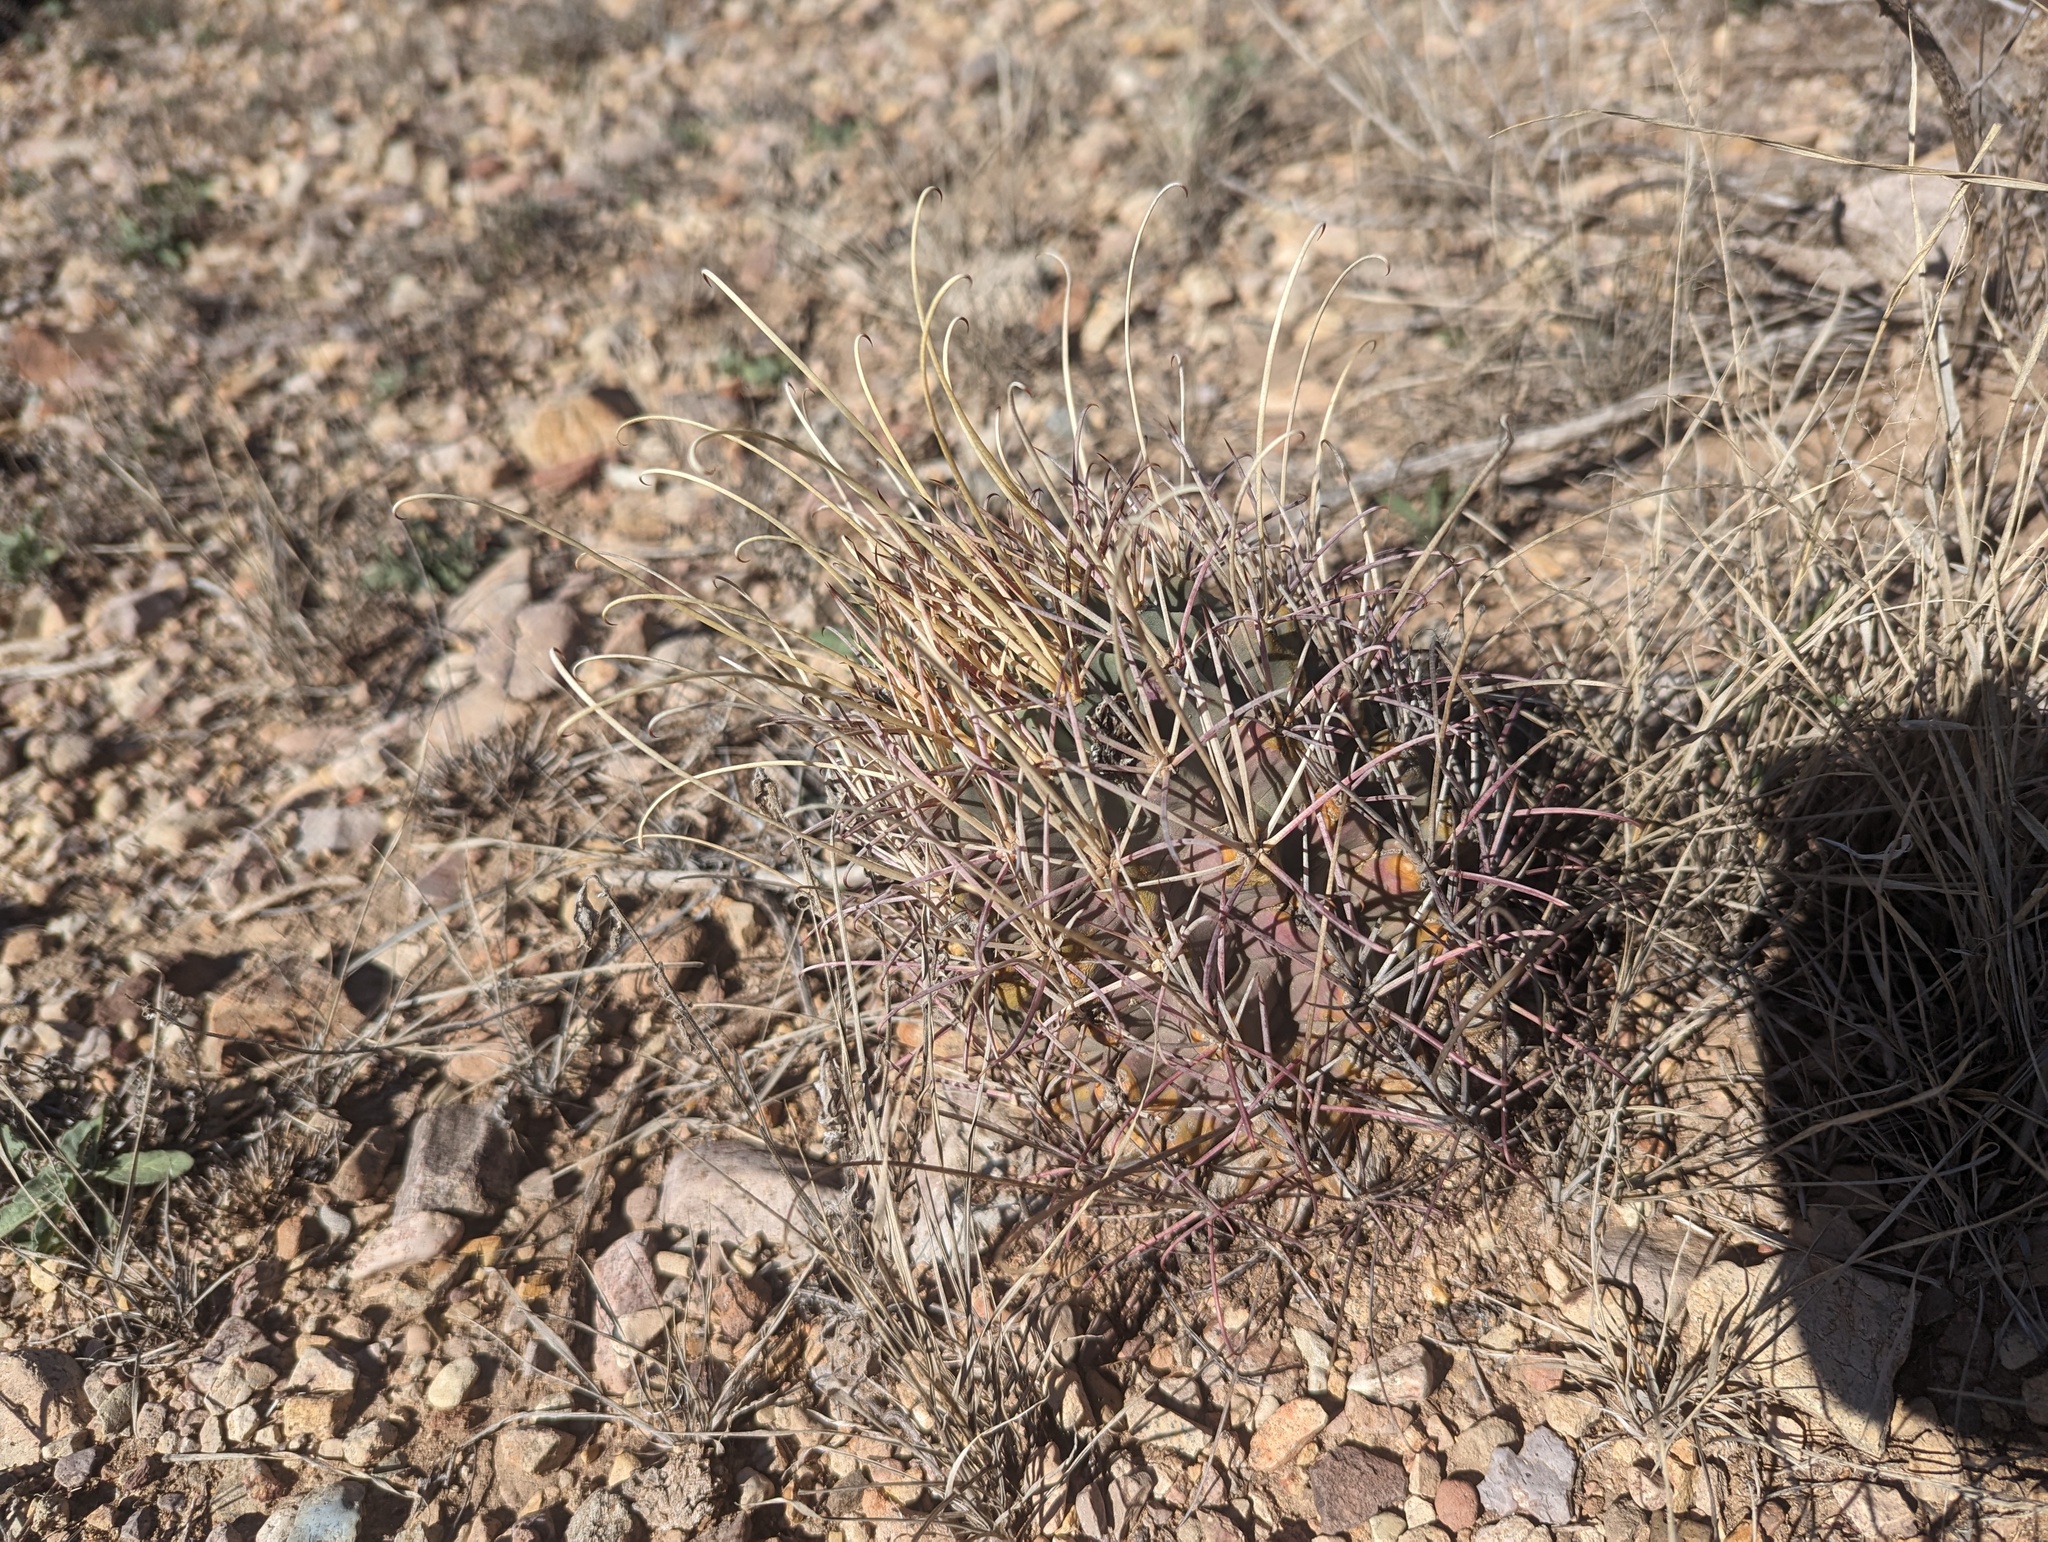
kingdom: Plantae
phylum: Tracheophyta
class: Magnoliopsida
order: Caryophyllales
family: Cactaceae
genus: Ferocactus
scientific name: Ferocactus uncinatus
